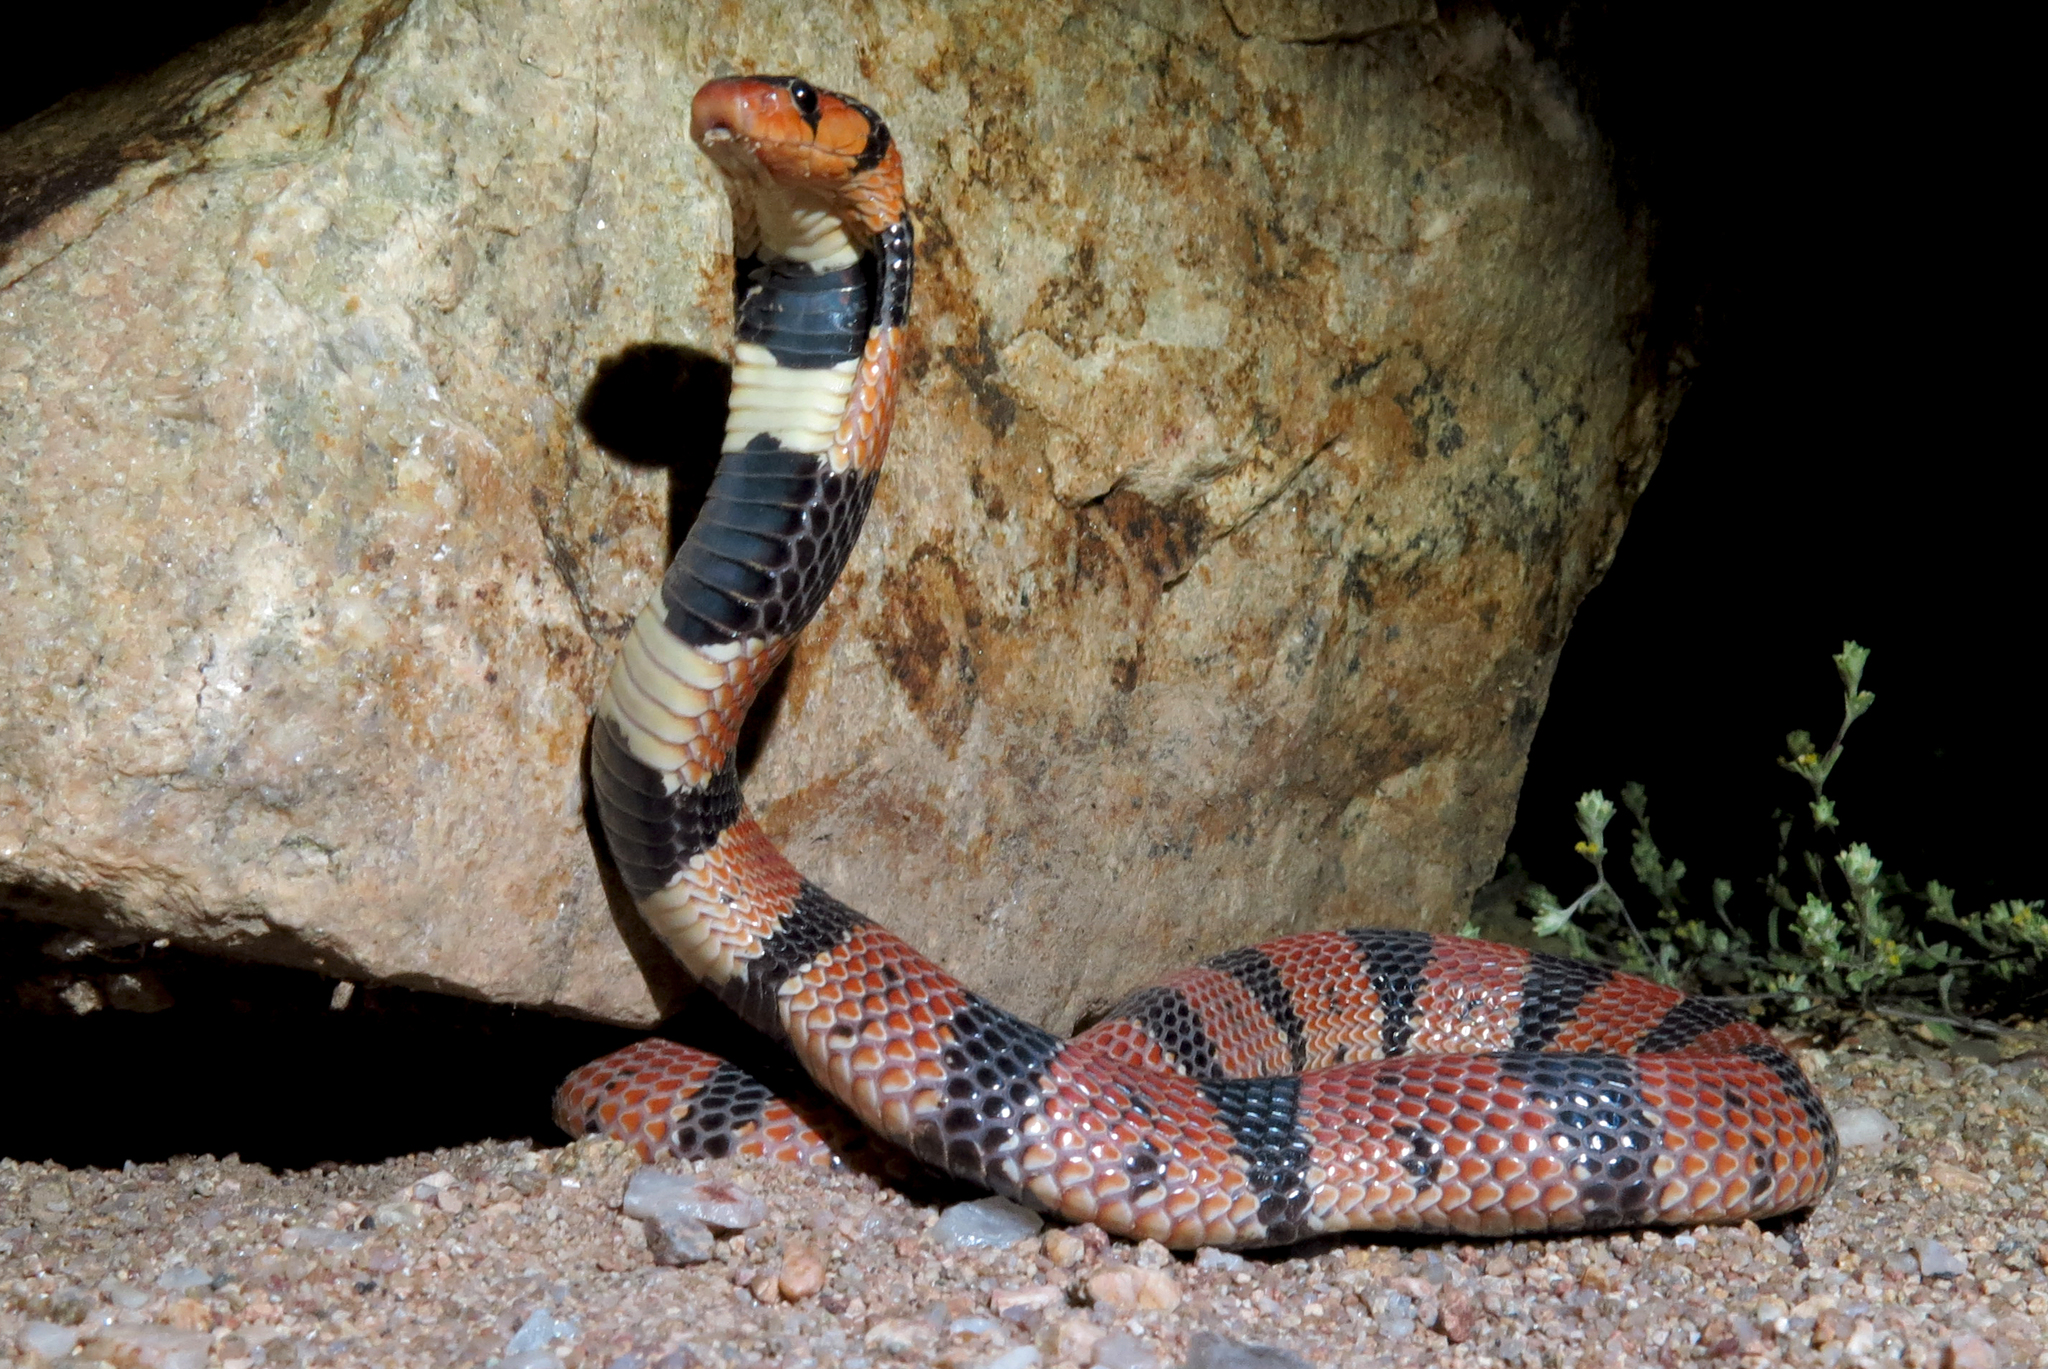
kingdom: Animalia
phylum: Chordata
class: Squamata
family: Elapidae
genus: Aspidelaps
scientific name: Aspidelaps lubricus
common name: Coral shield cobra
